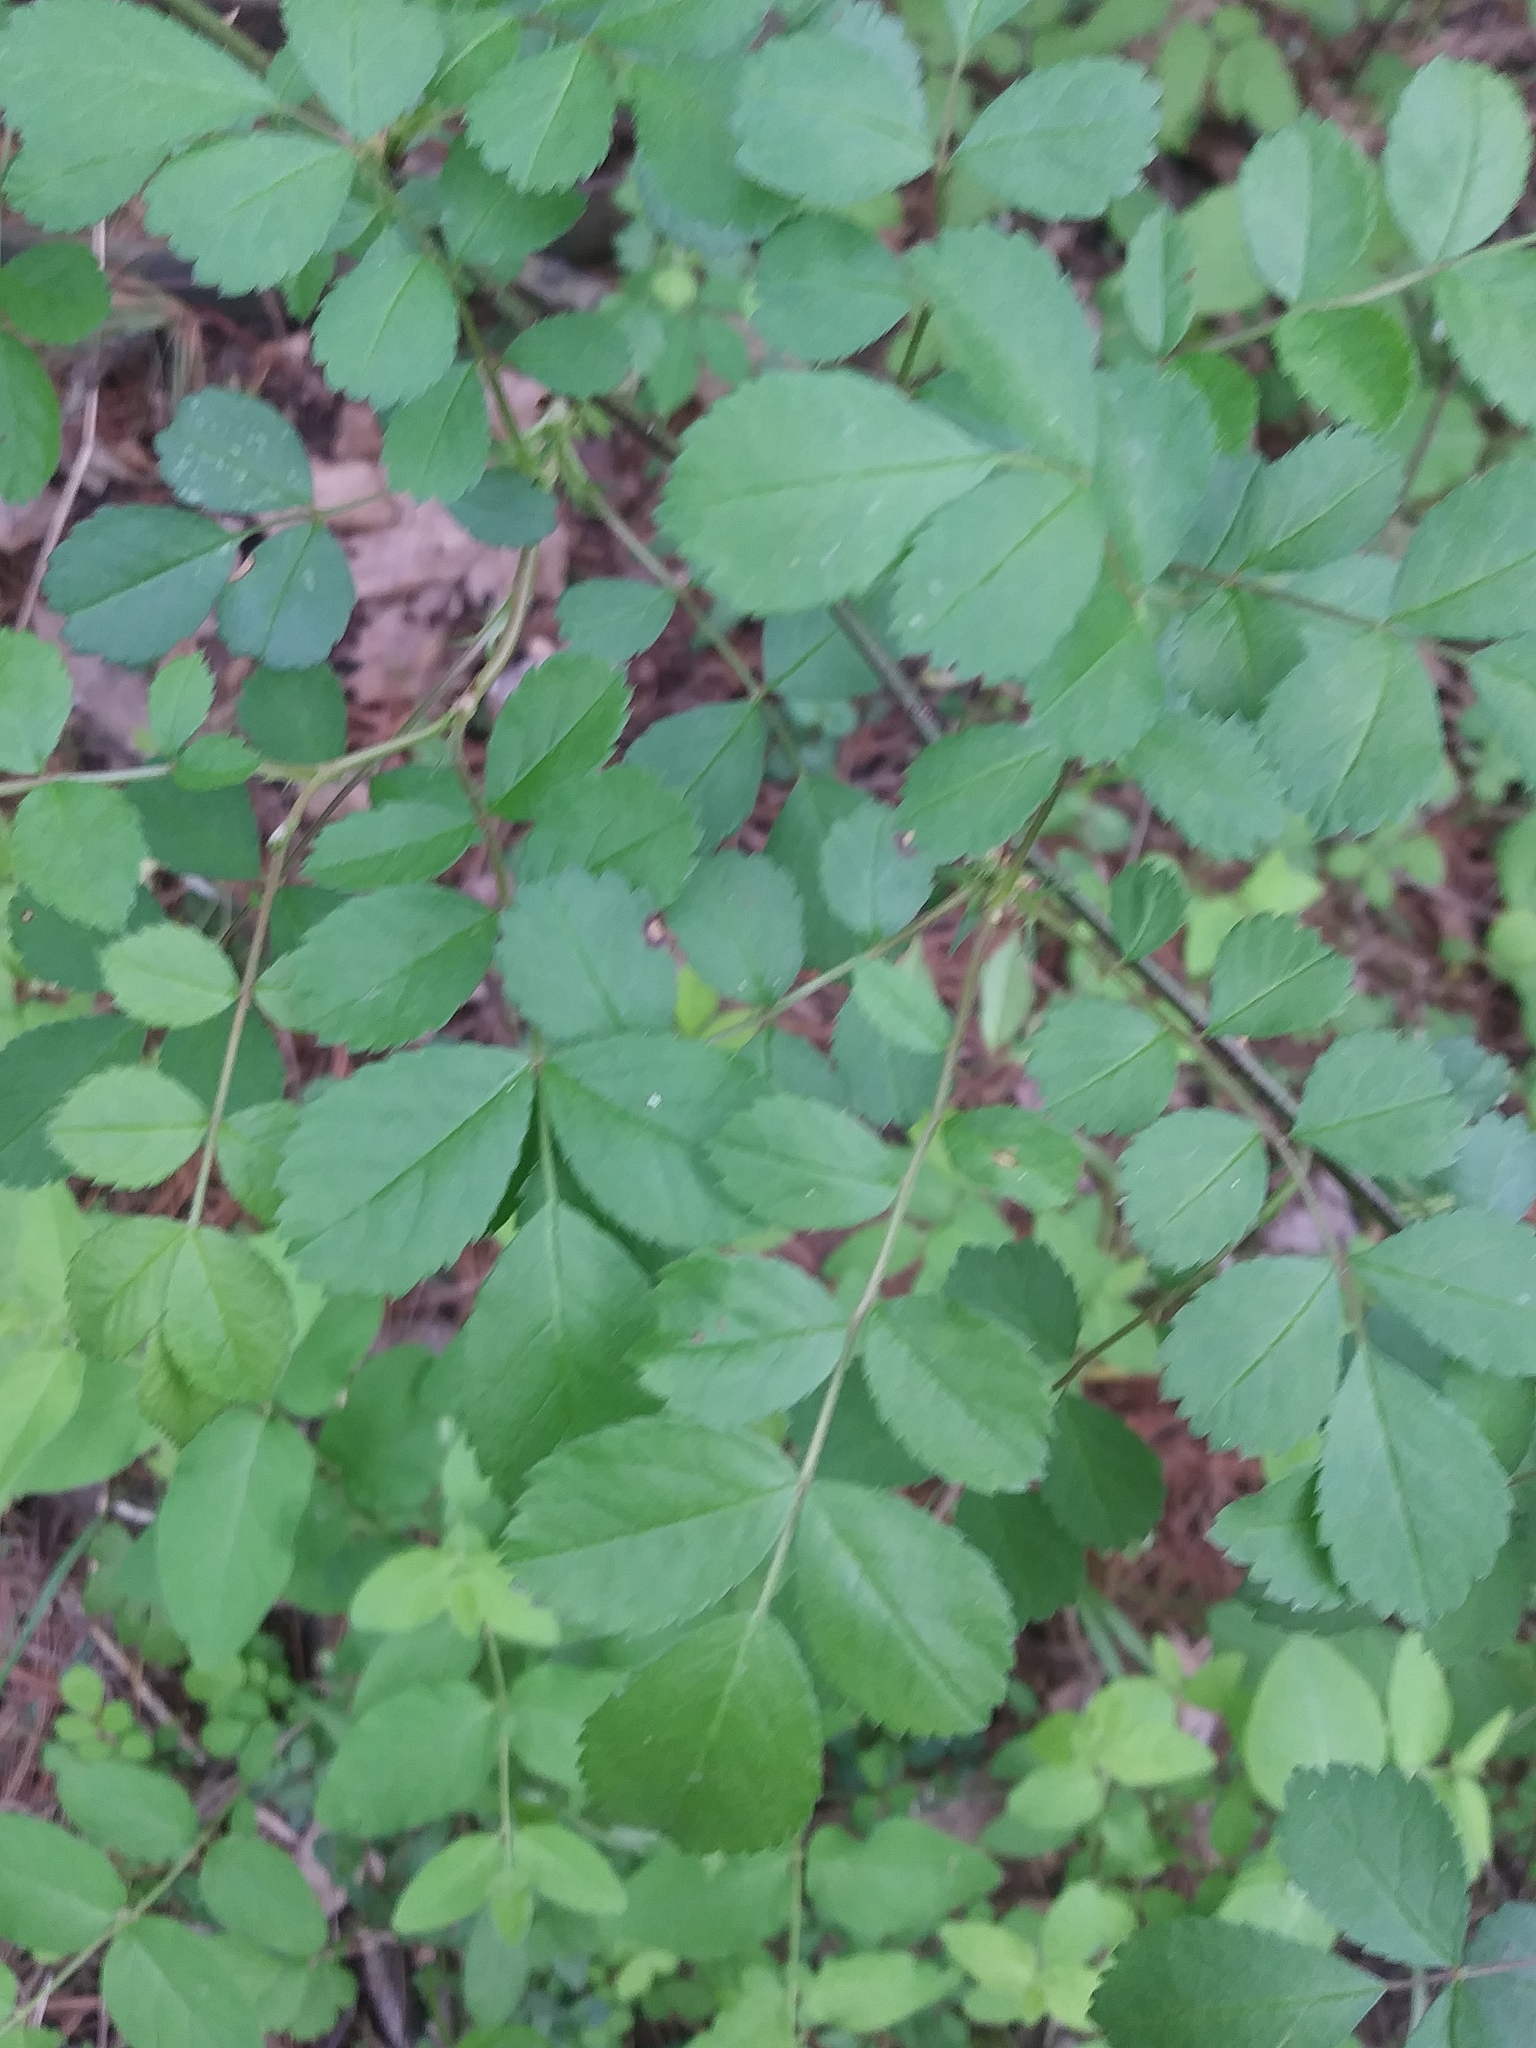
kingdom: Plantae
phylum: Tracheophyta
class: Magnoliopsida
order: Rosales
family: Rosaceae
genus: Rosa
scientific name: Rosa multiflora
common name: Multiflora rose
